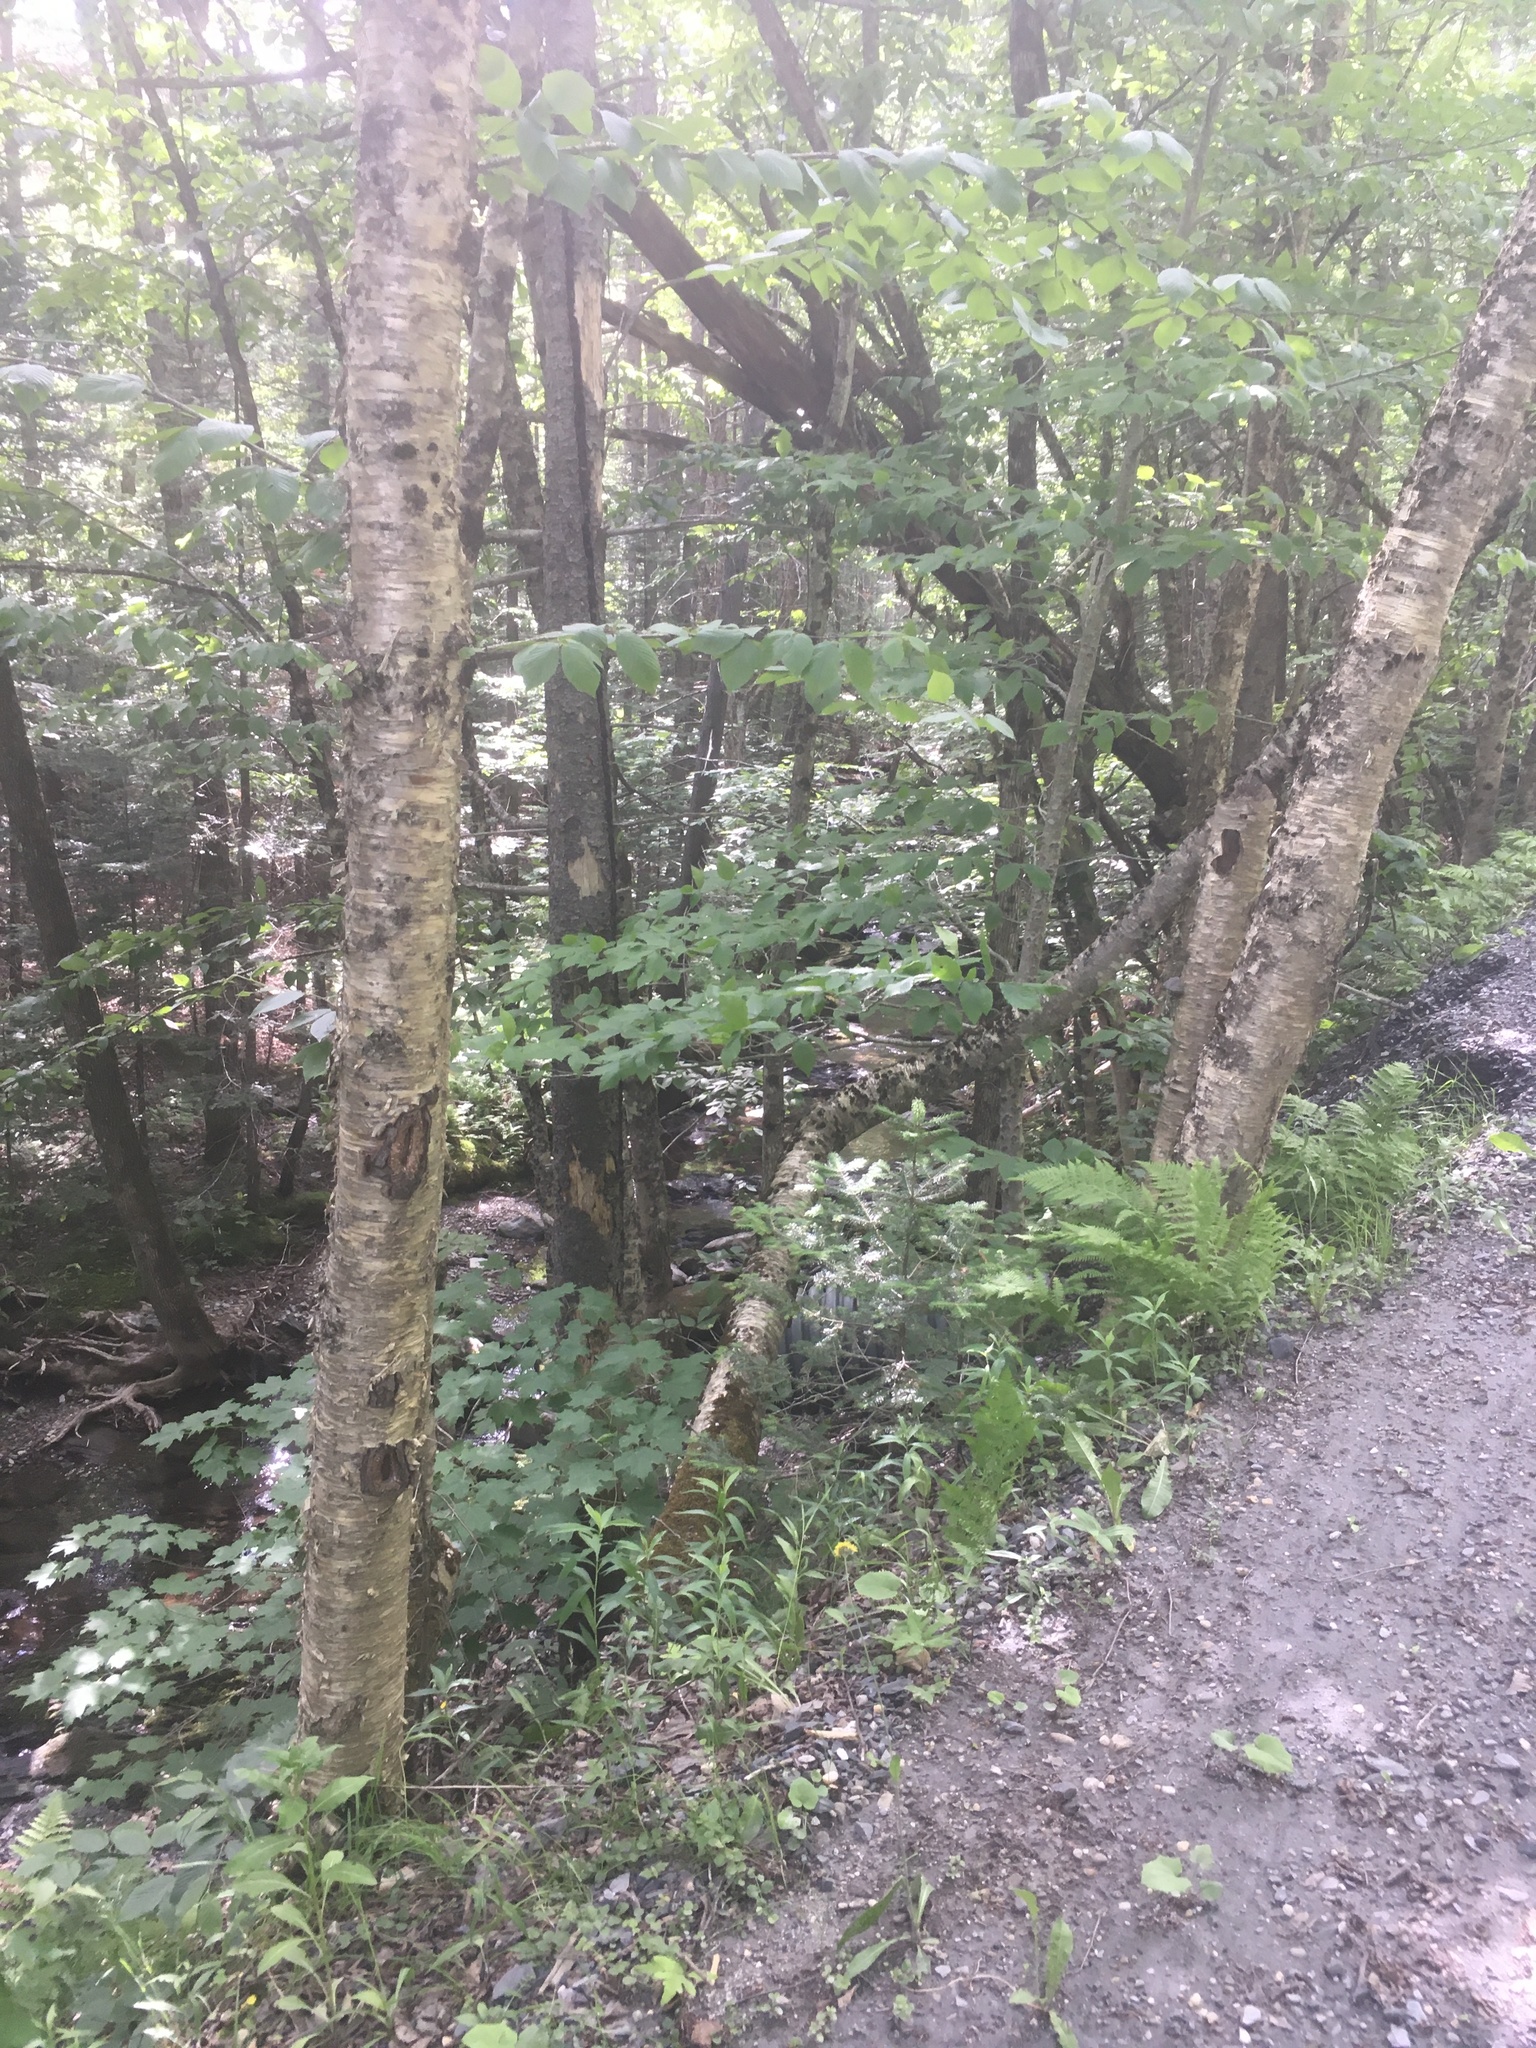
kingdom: Plantae
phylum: Tracheophyta
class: Magnoliopsida
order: Fagales
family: Betulaceae
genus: Betula
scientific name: Betula alleghaniensis
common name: Yellow birch
